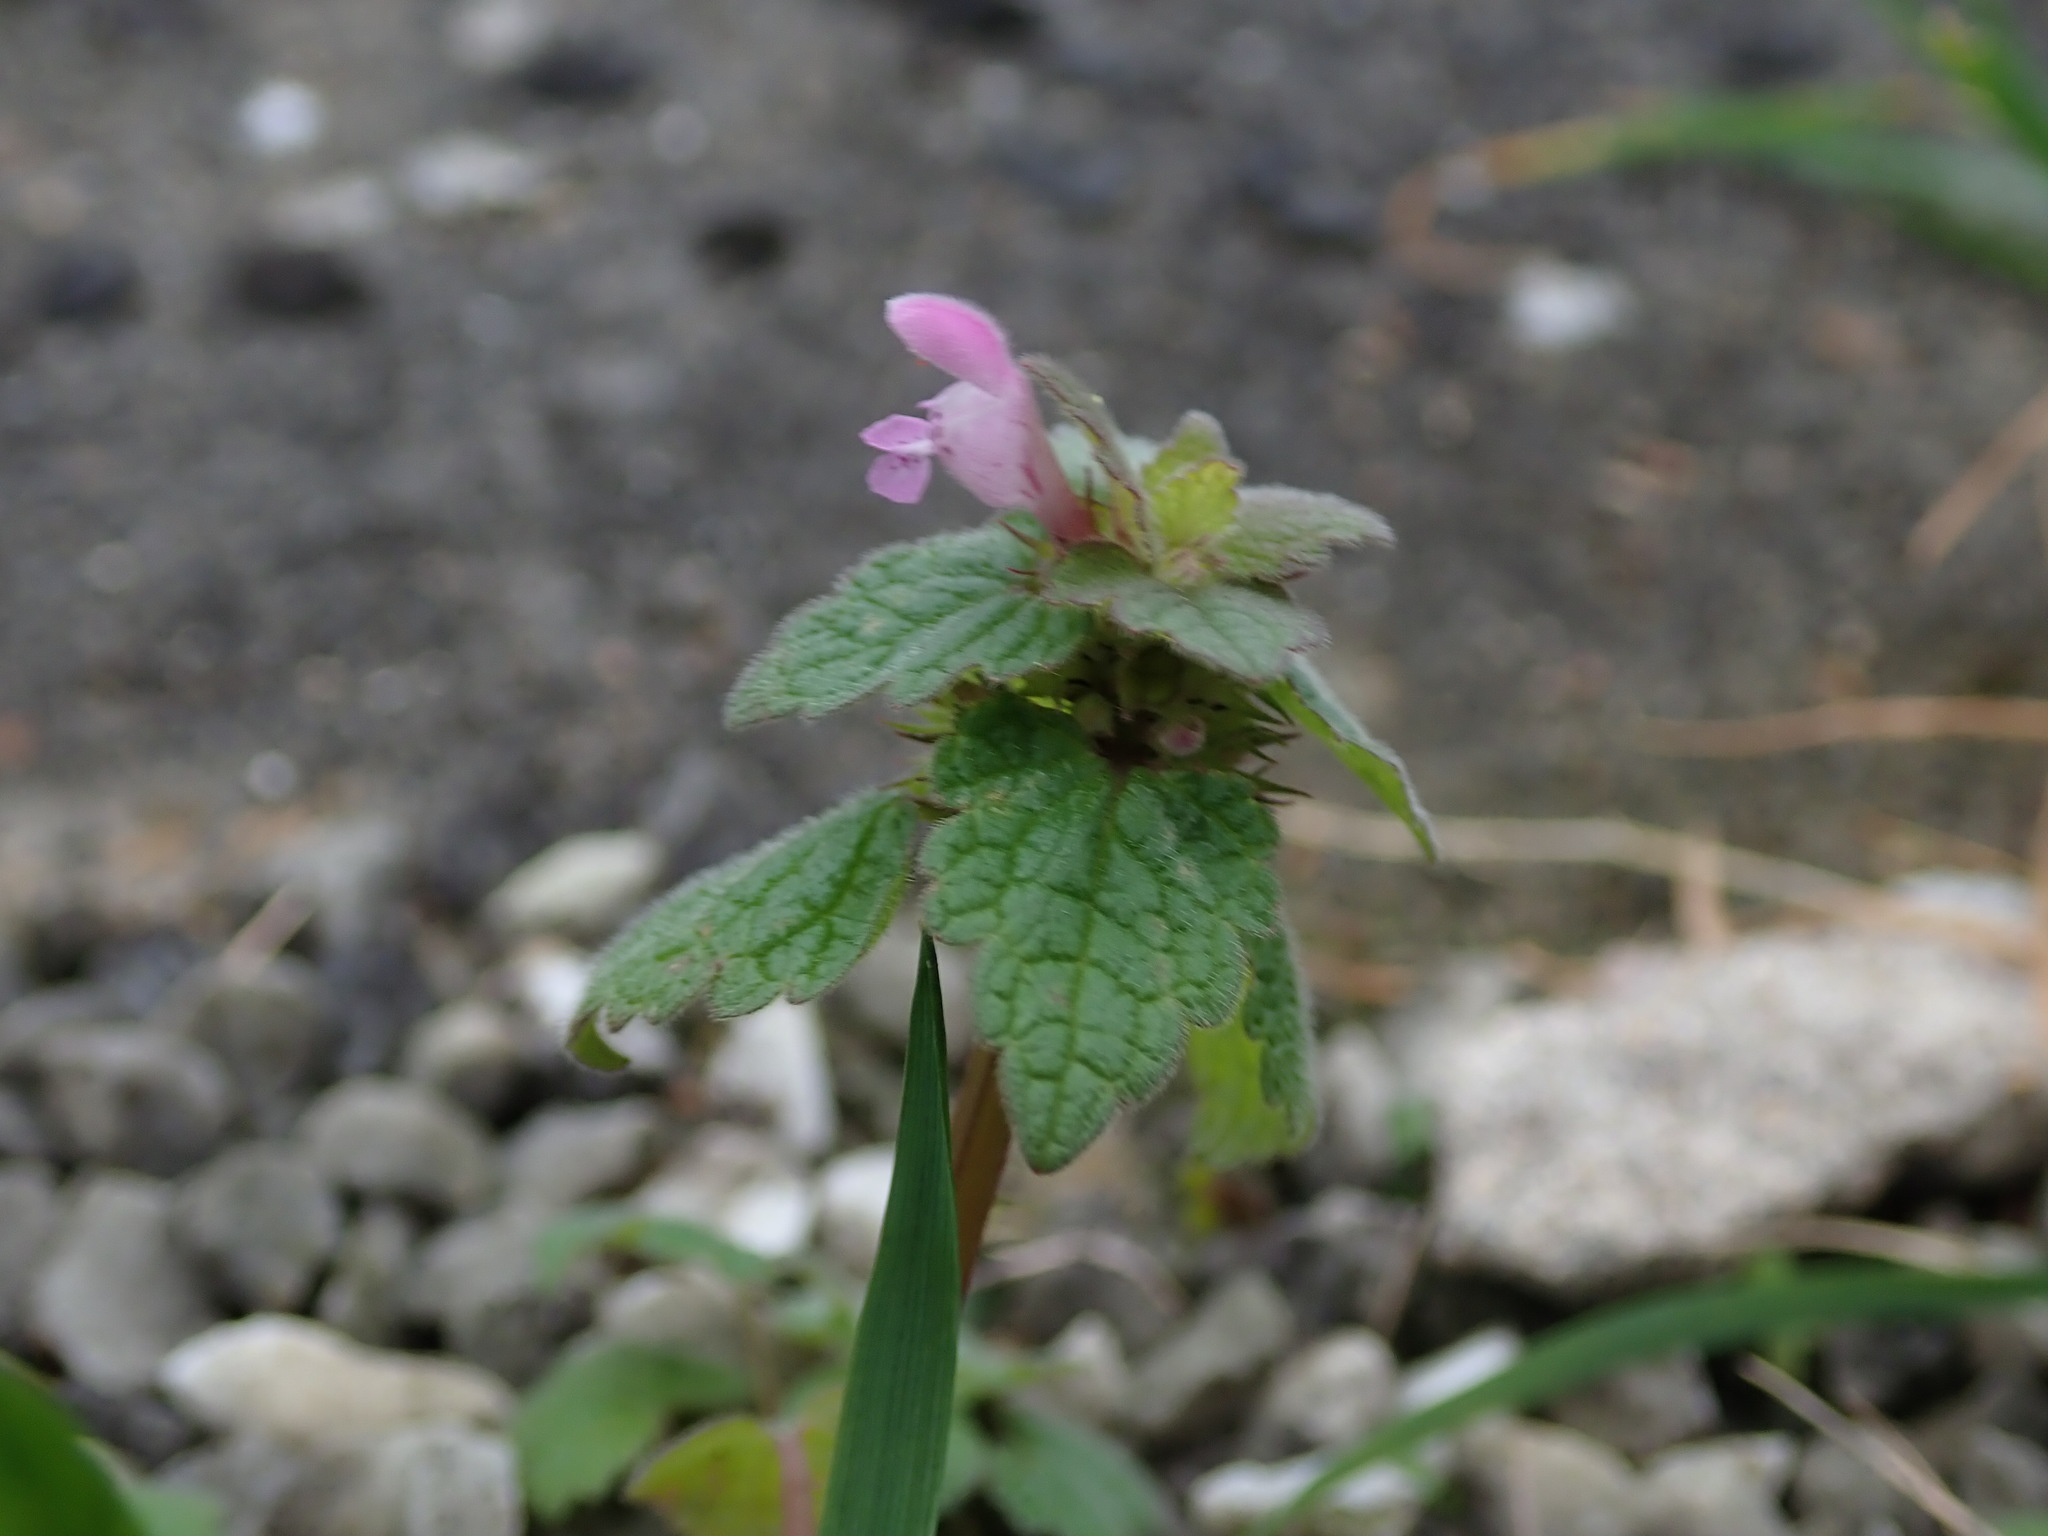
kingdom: Plantae
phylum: Tracheophyta
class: Magnoliopsida
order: Lamiales
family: Lamiaceae
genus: Lamium
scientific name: Lamium purpureum
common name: Red dead-nettle
